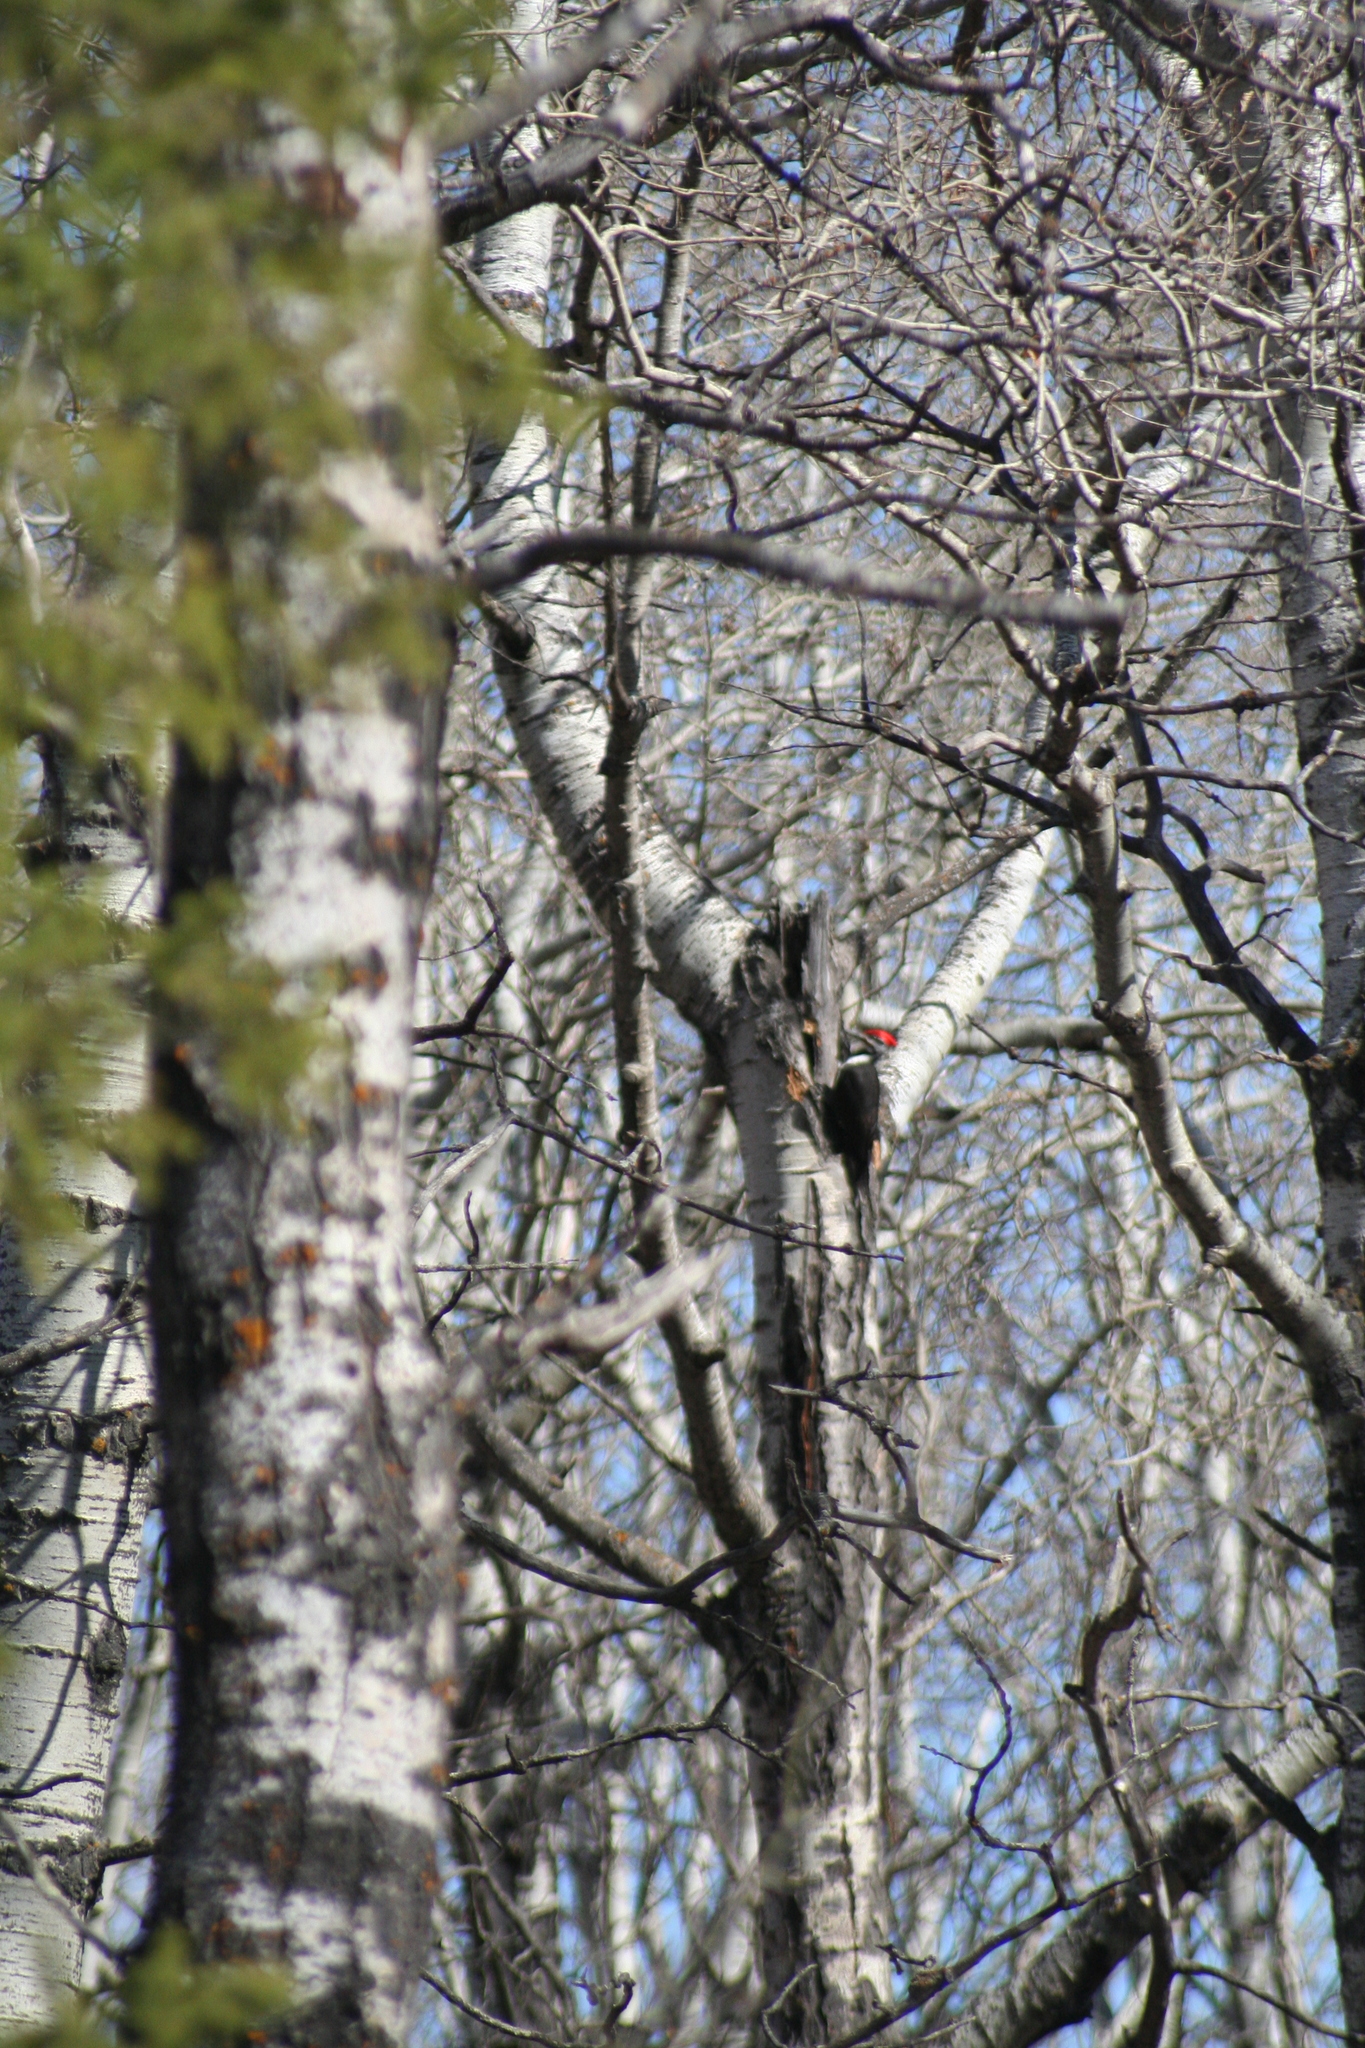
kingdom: Animalia
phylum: Chordata
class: Aves
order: Piciformes
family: Picidae
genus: Dryocopus
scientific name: Dryocopus pileatus
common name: Pileated woodpecker
